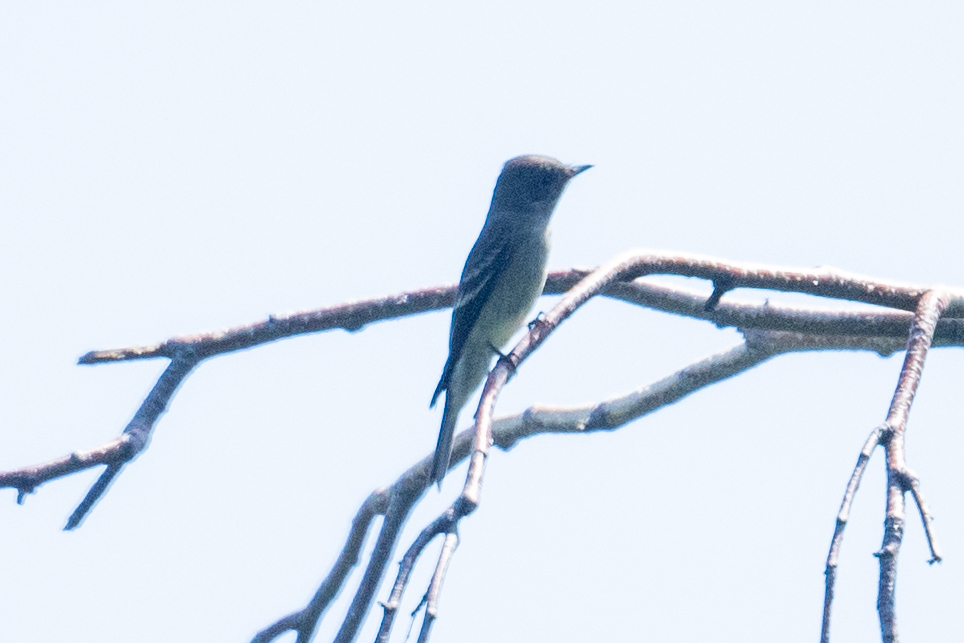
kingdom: Animalia
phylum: Chordata
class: Aves
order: Passeriformes
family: Tyrannidae
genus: Contopus
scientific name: Contopus sordidulus
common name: Western wood-pewee
